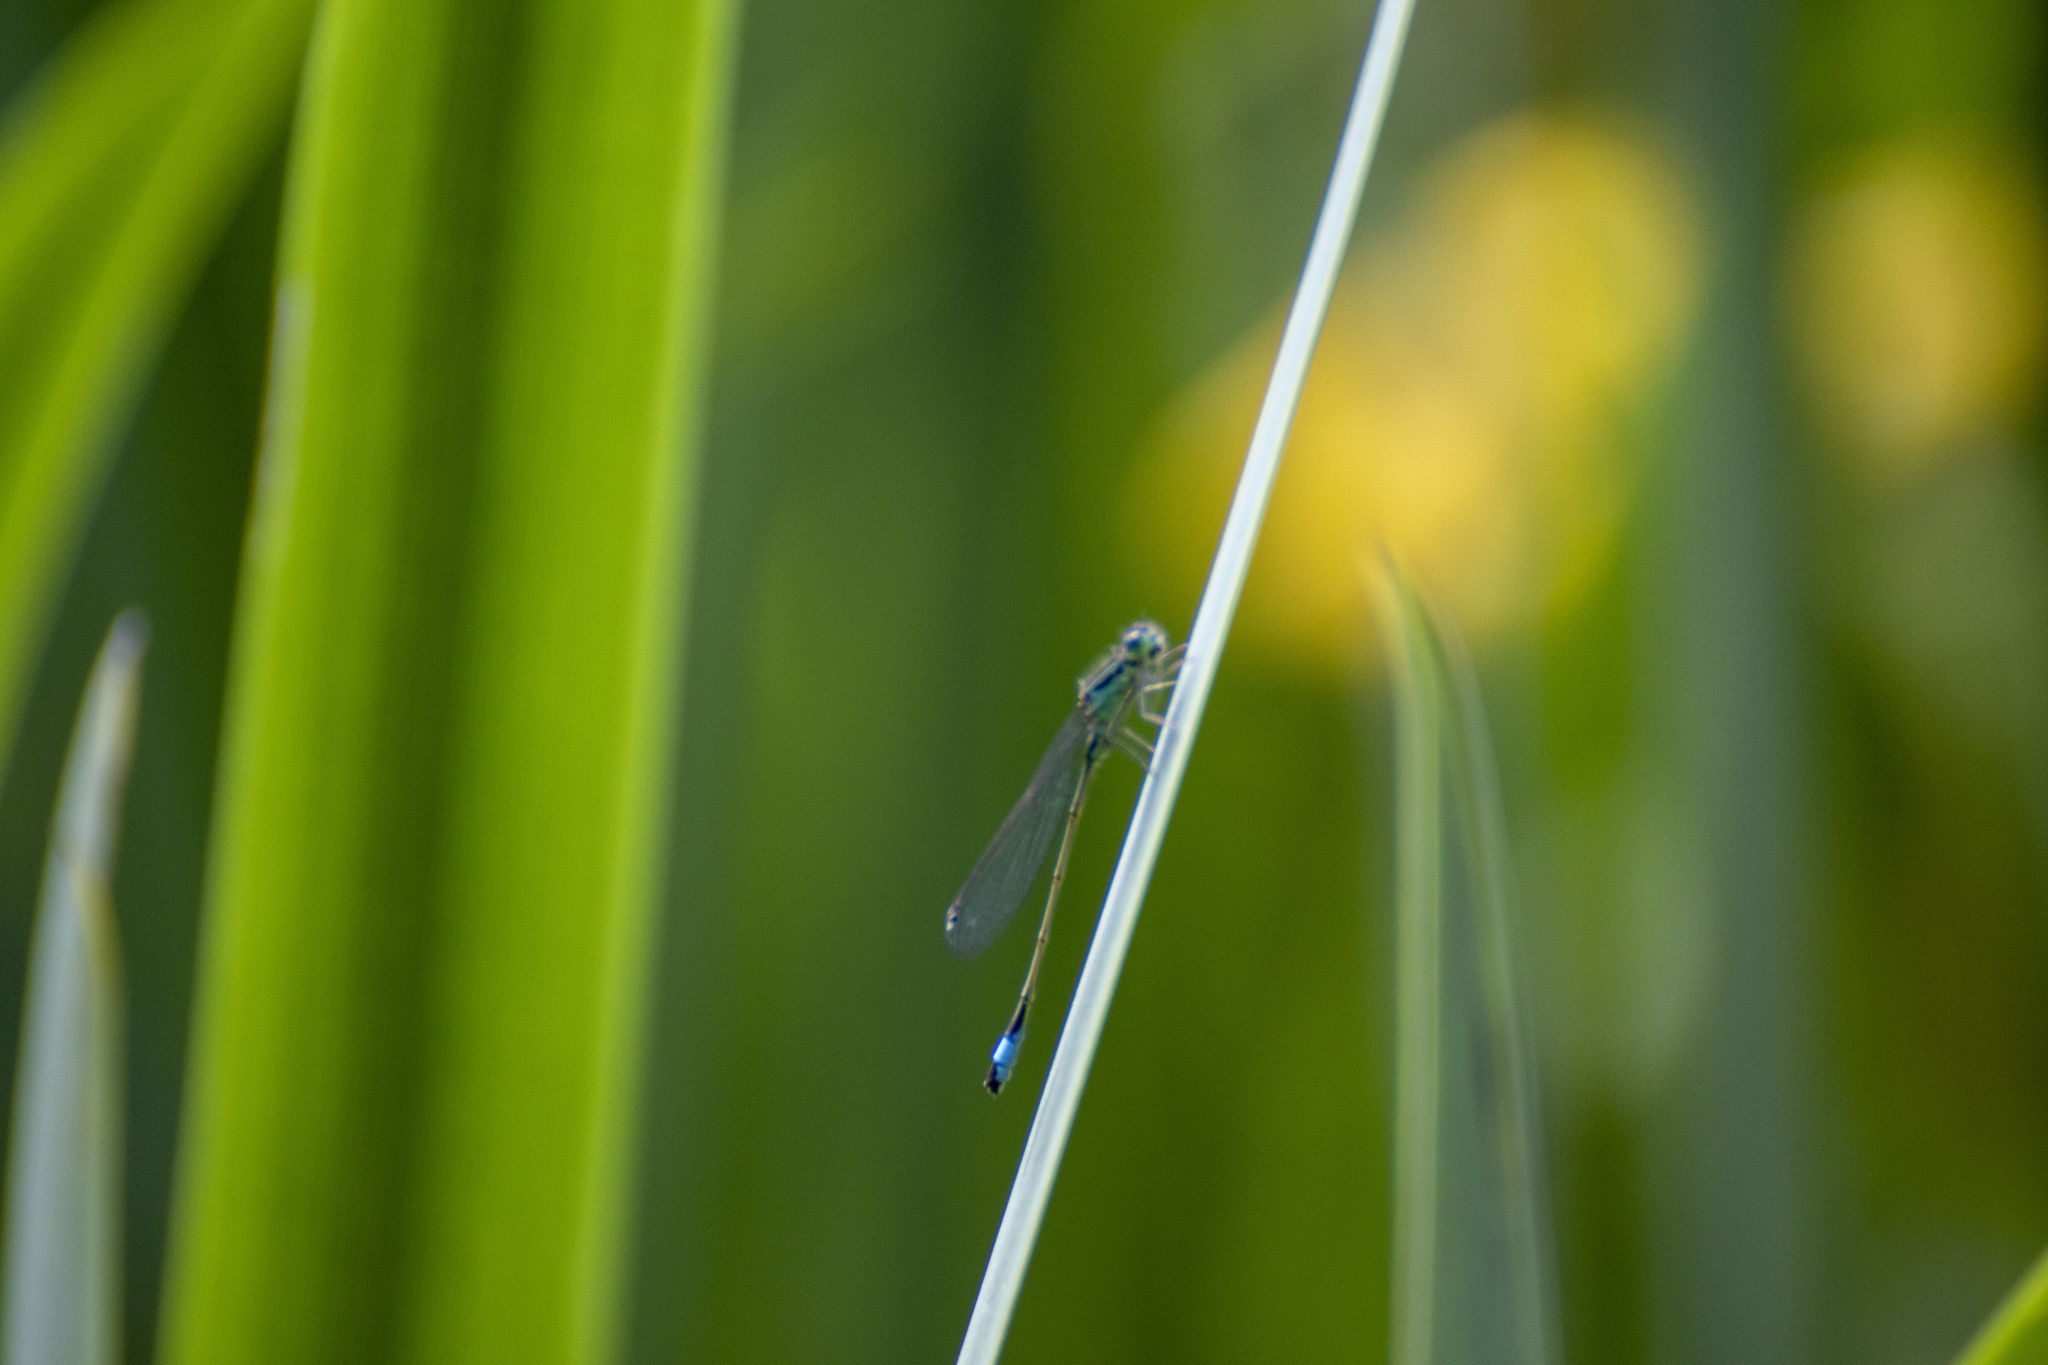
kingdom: Animalia
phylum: Arthropoda
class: Insecta
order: Odonata
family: Coenagrionidae
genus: Ischnura
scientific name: Ischnura elegans
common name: Blue-tailed damselfly
